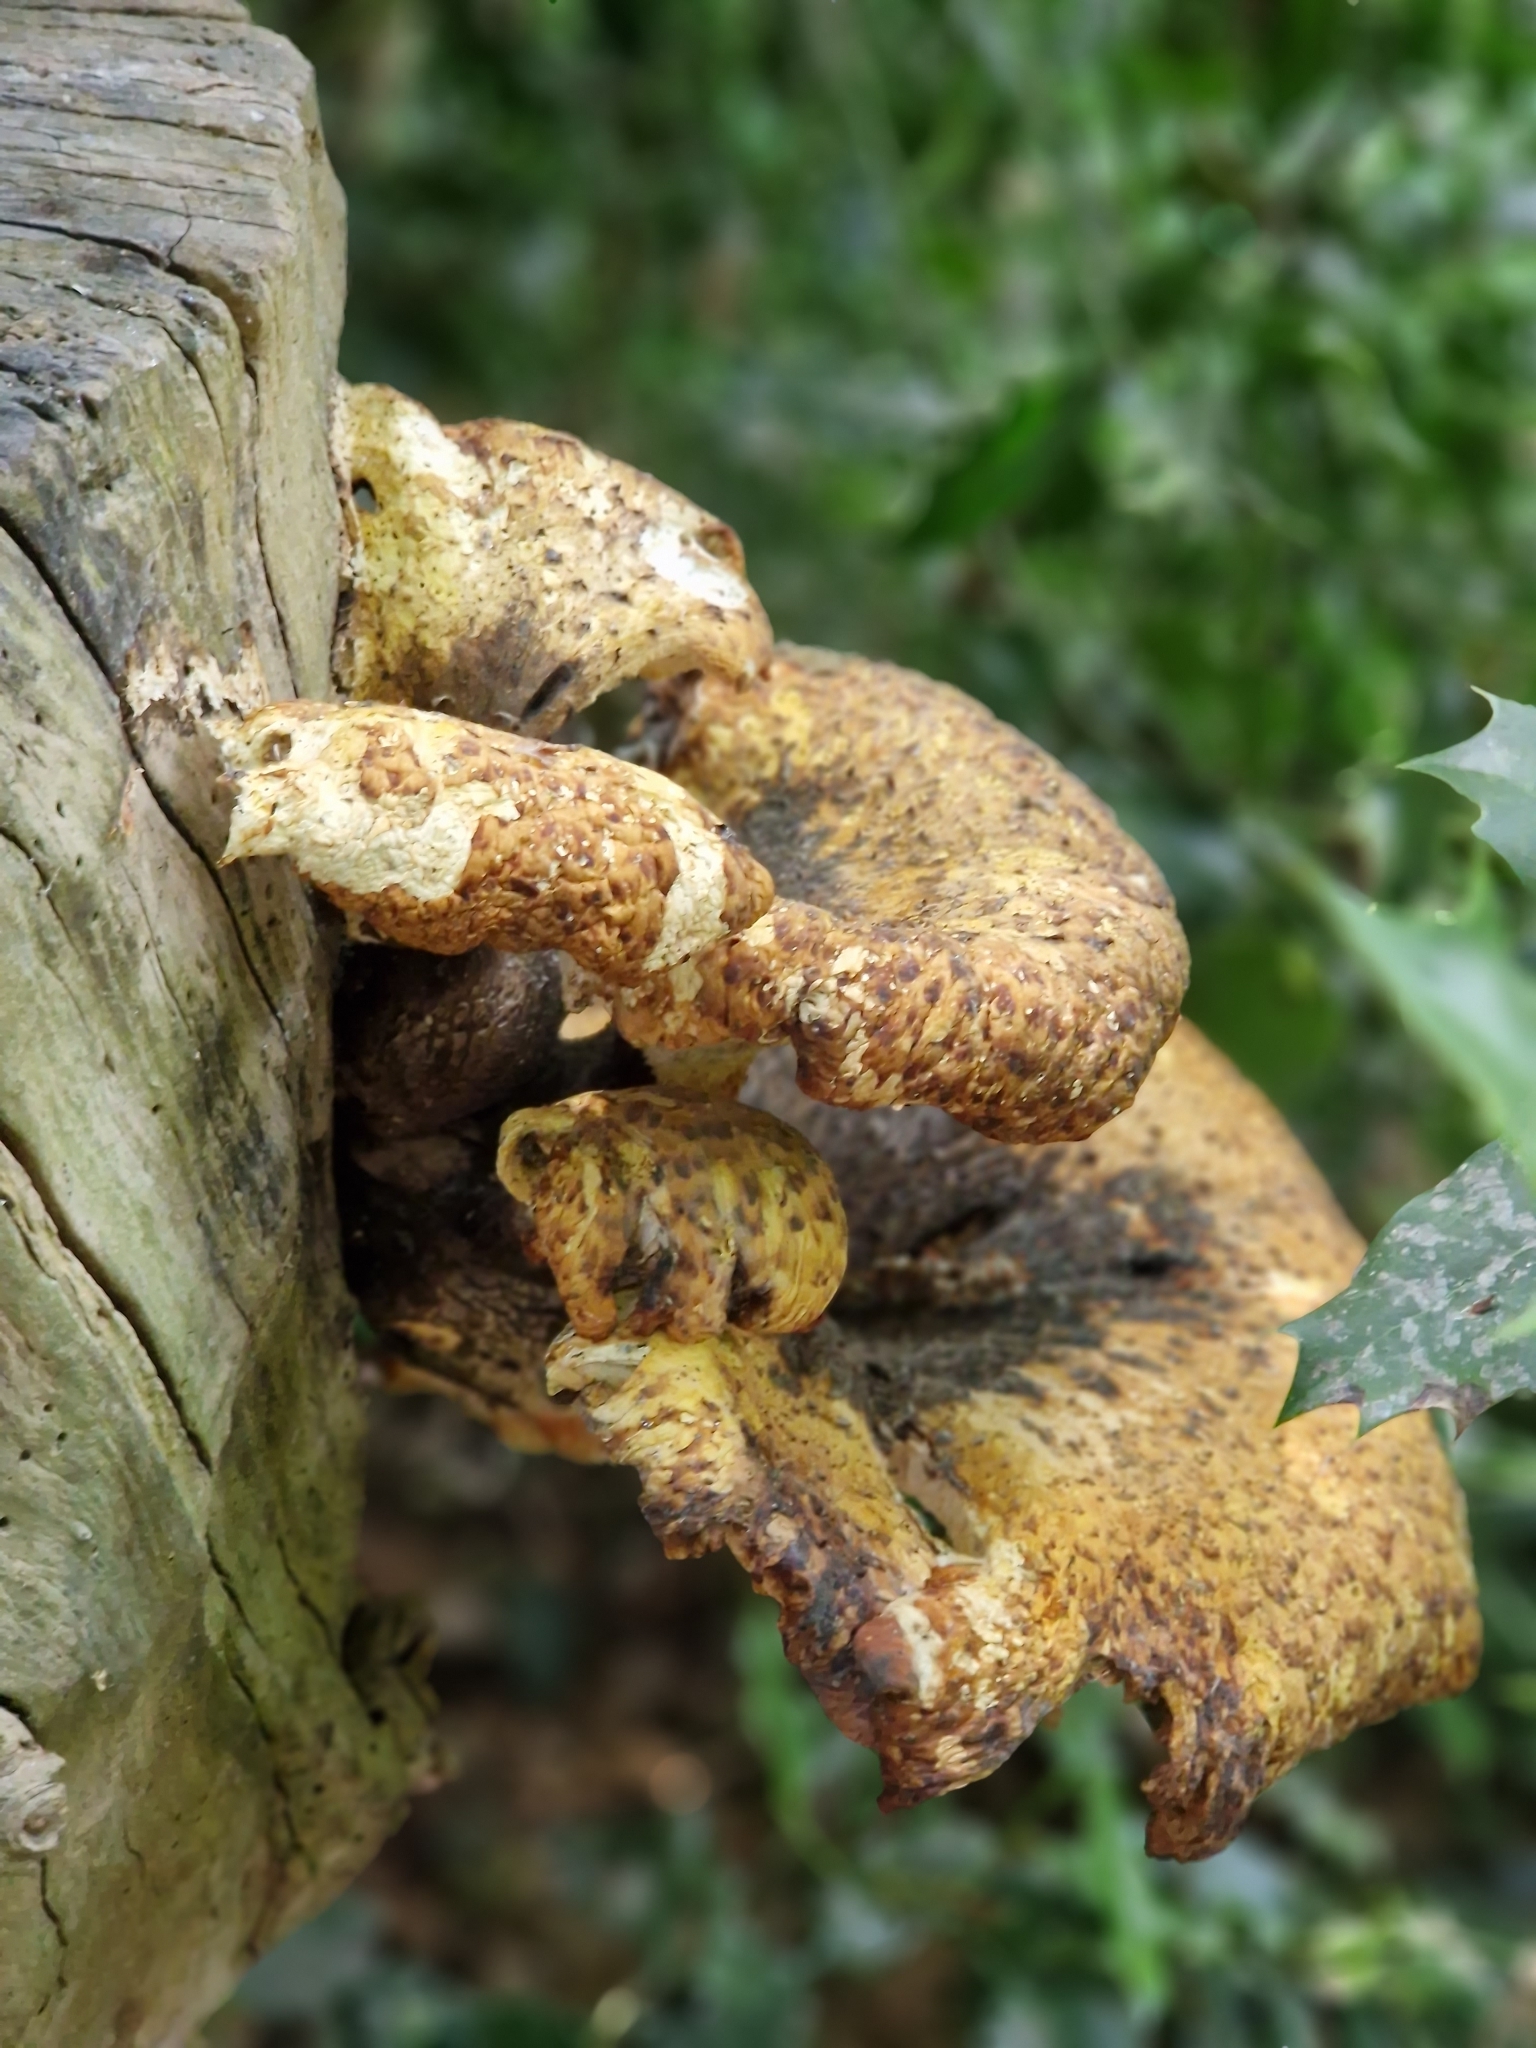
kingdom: Fungi
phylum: Basidiomycota
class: Agaricomycetes
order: Polyporales
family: Polyporaceae
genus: Cerioporus
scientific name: Cerioporus squamosus
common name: Dryad's saddle
